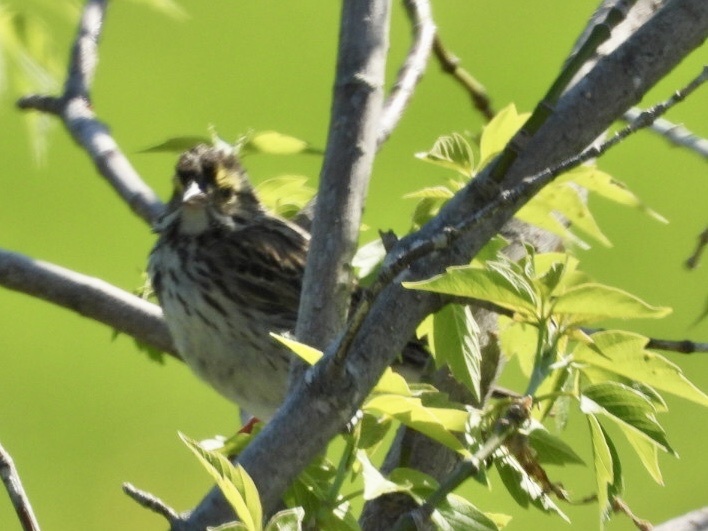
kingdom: Animalia
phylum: Chordata
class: Aves
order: Passeriformes
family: Passerellidae
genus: Melospiza
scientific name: Melospiza melodia
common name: Song sparrow
